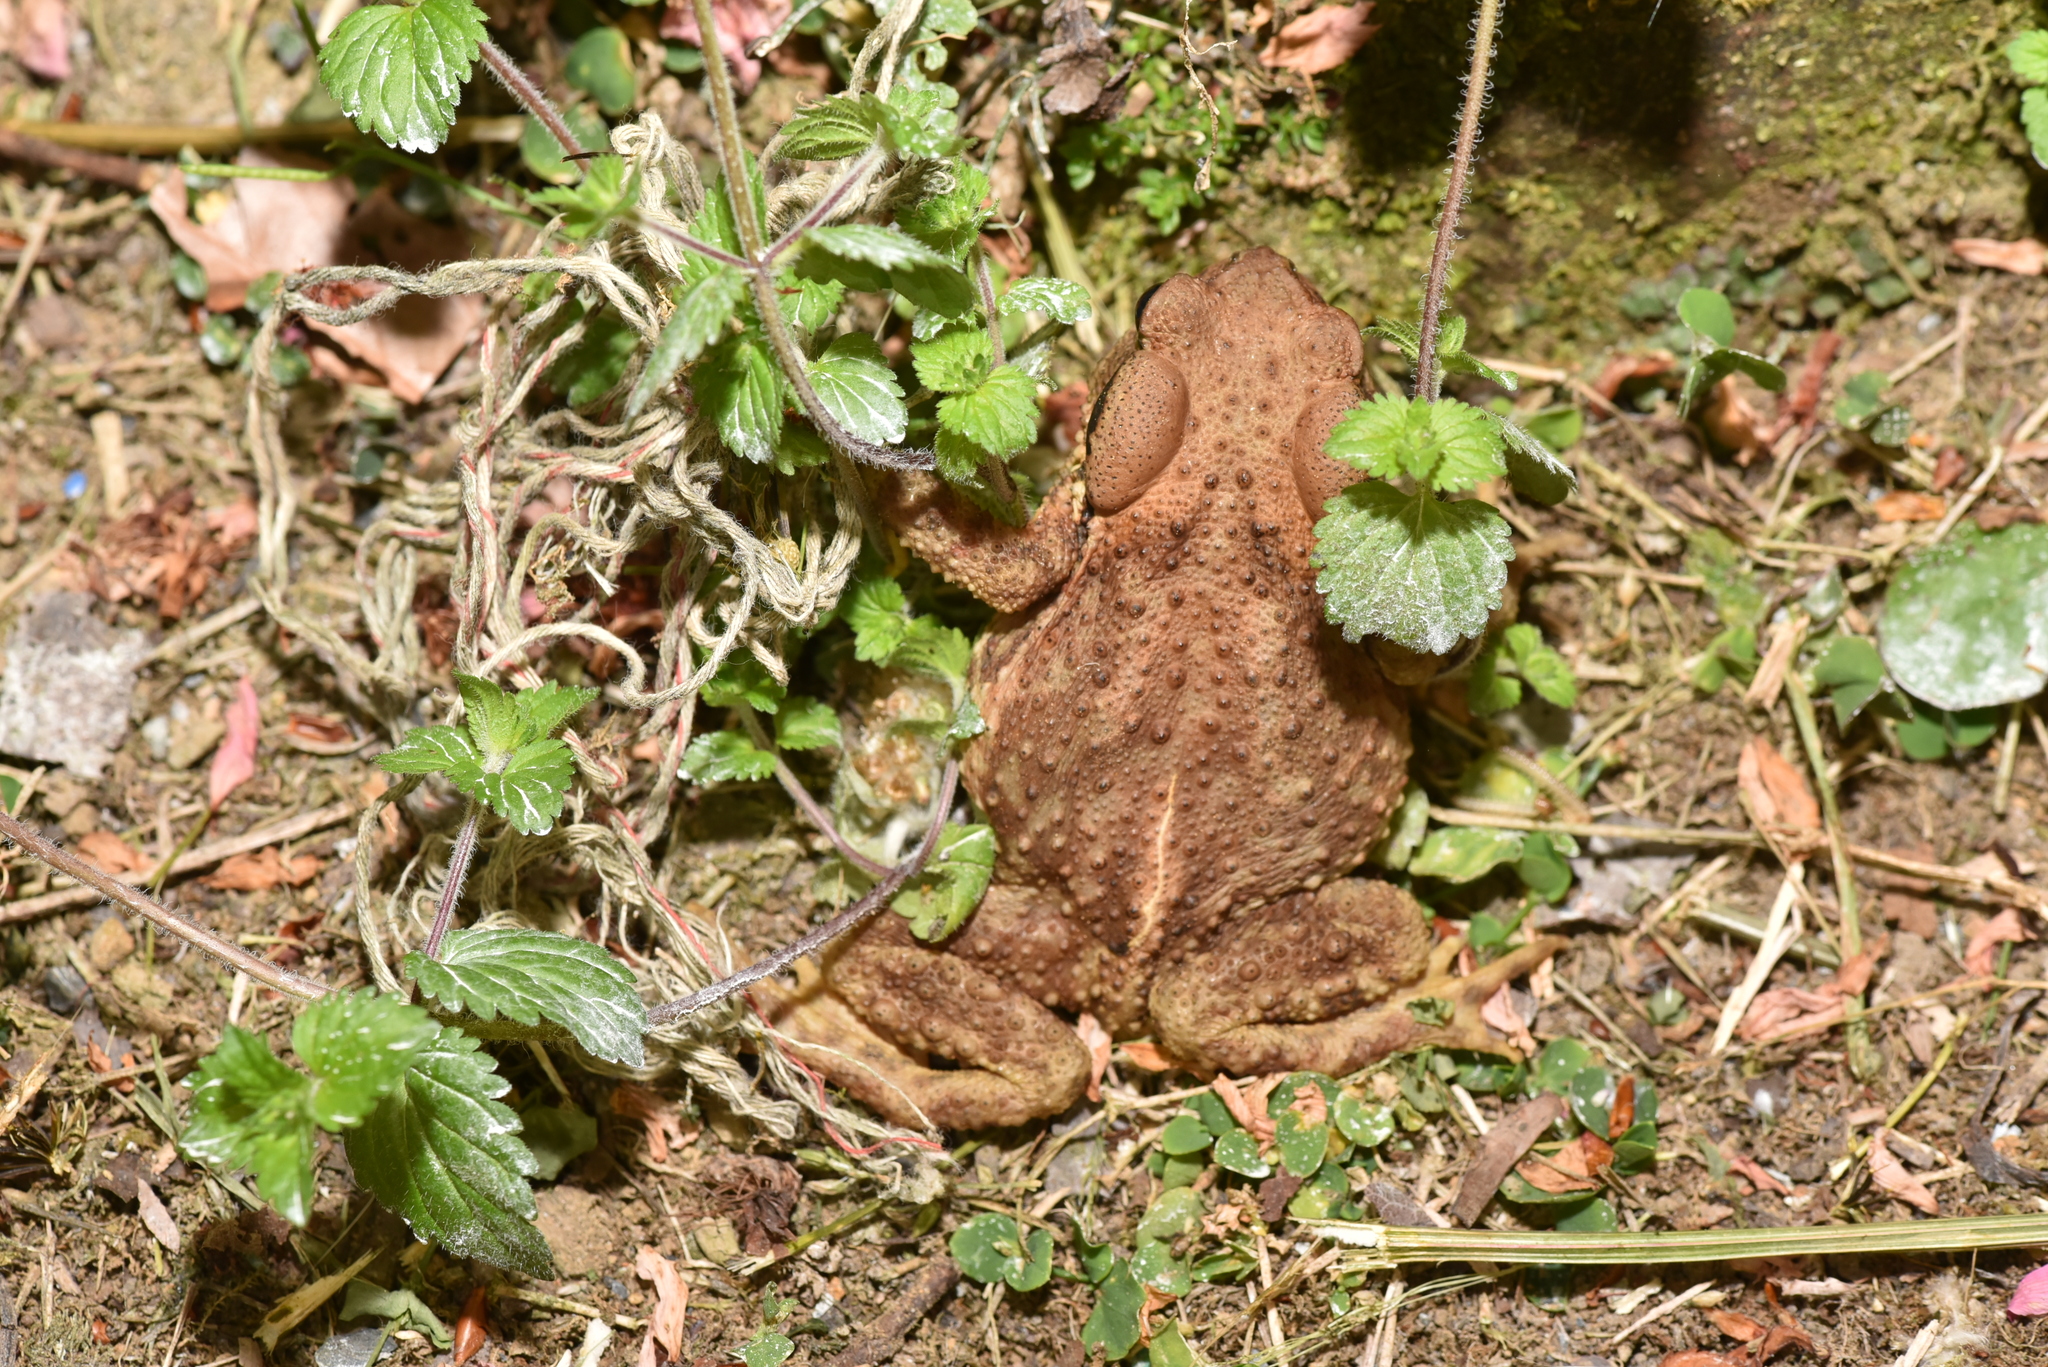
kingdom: Animalia
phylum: Chordata
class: Amphibia
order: Anura
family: Bufonidae
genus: Bufo
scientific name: Bufo bankorensis
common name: Bankor toad
